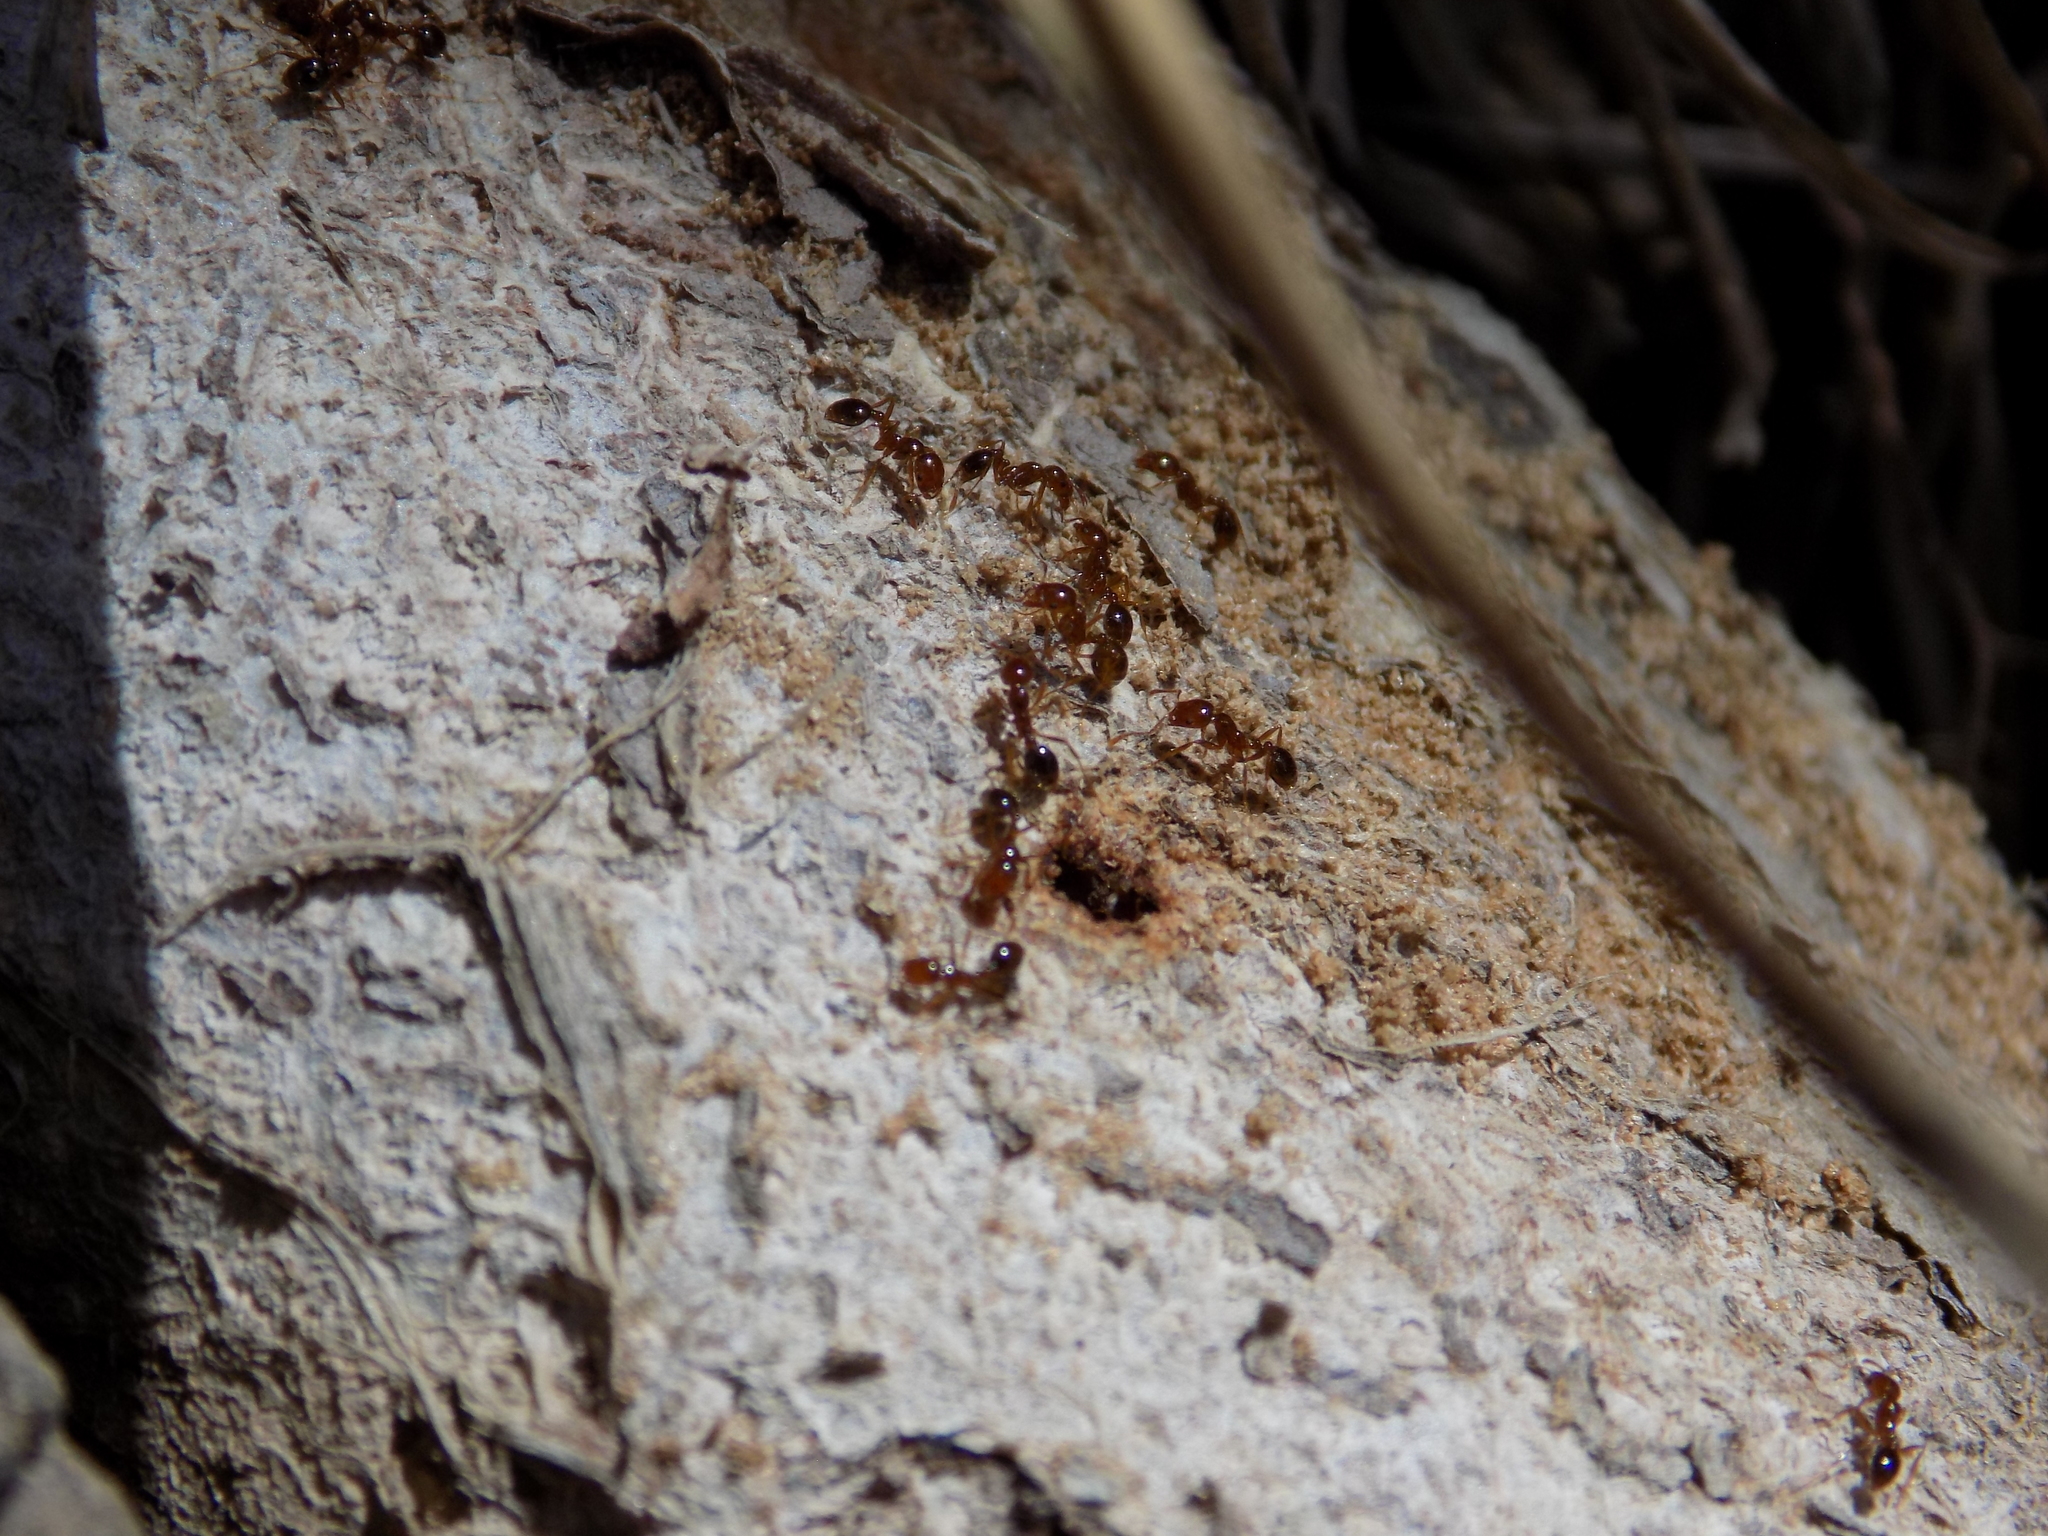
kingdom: Animalia
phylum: Arthropoda
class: Insecta
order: Hymenoptera
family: Formicidae
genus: Solenopsis
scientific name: Solenopsis invicta
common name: Red imported fire ant
